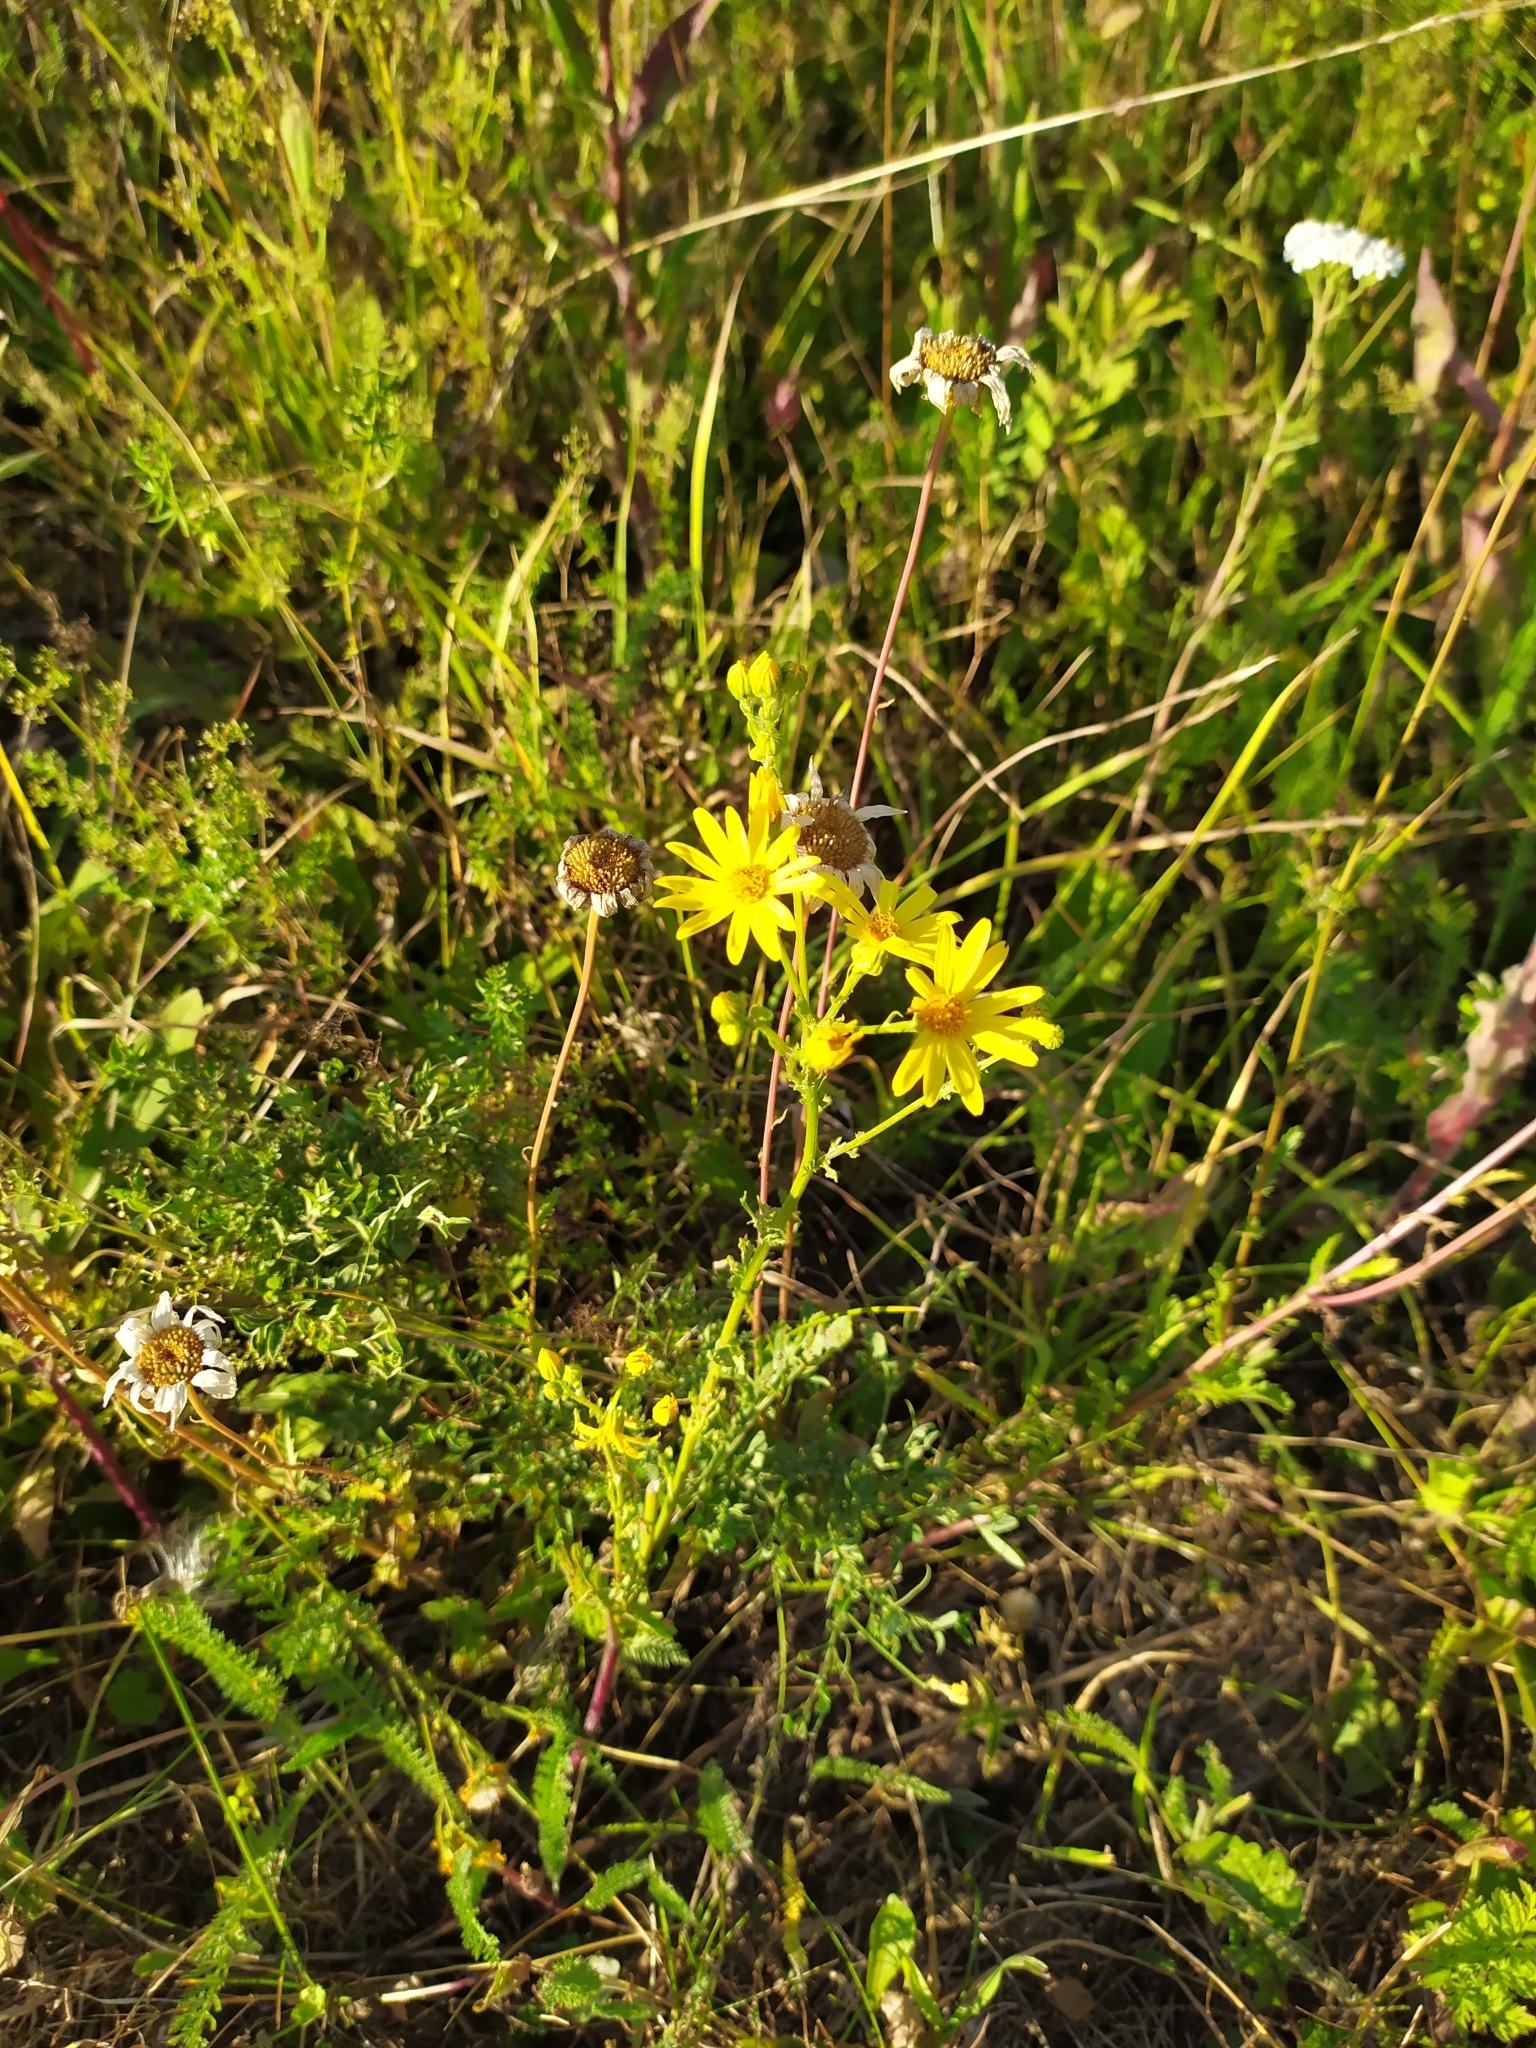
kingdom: Plantae
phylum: Tracheophyta
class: Magnoliopsida
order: Asterales
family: Asteraceae
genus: Jacobaea
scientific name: Jacobaea vulgaris
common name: Stinking willie
